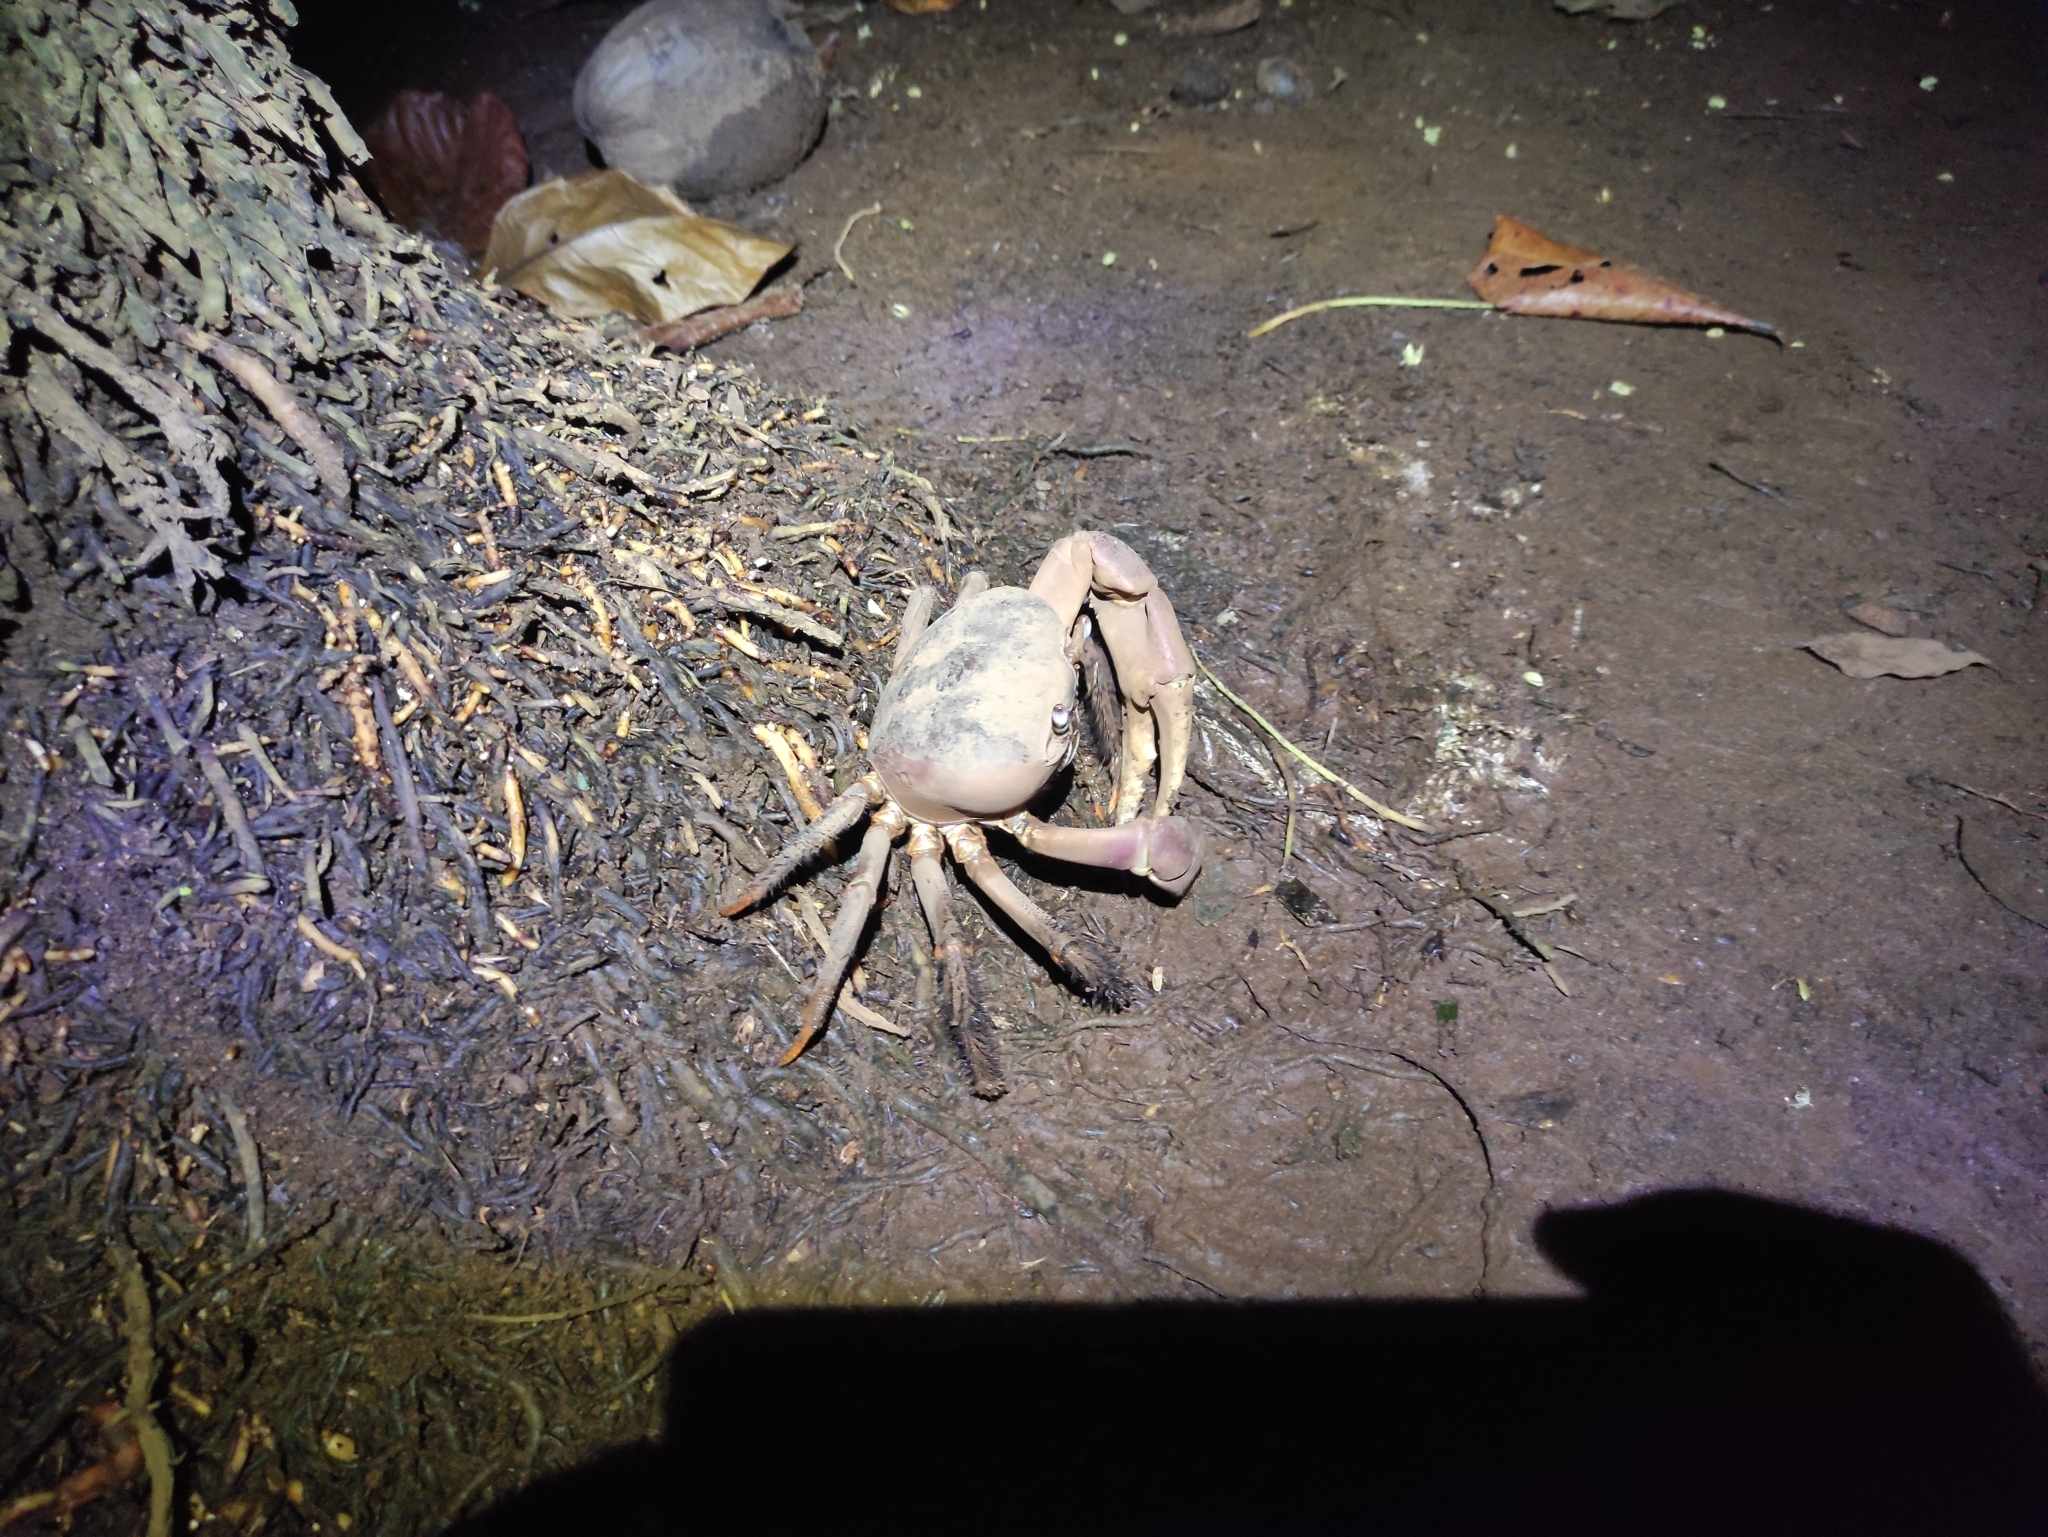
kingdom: Animalia
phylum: Arthropoda
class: Malacostraca
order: Decapoda
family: Gecarcinidae
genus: Cardisoma
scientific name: Cardisoma carnifex
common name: Brown land crab
